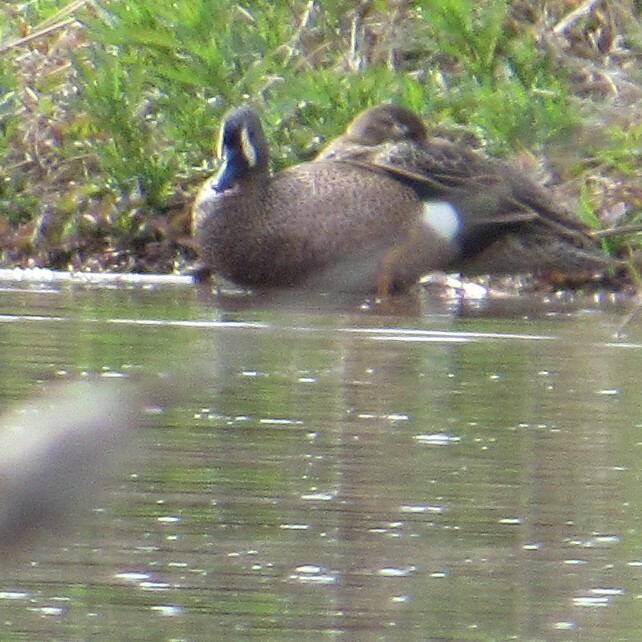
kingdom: Animalia
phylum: Chordata
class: Aves
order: Anseriformes
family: Anatidae
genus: Spatula
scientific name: Spatula discors
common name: Blue-winged teal
